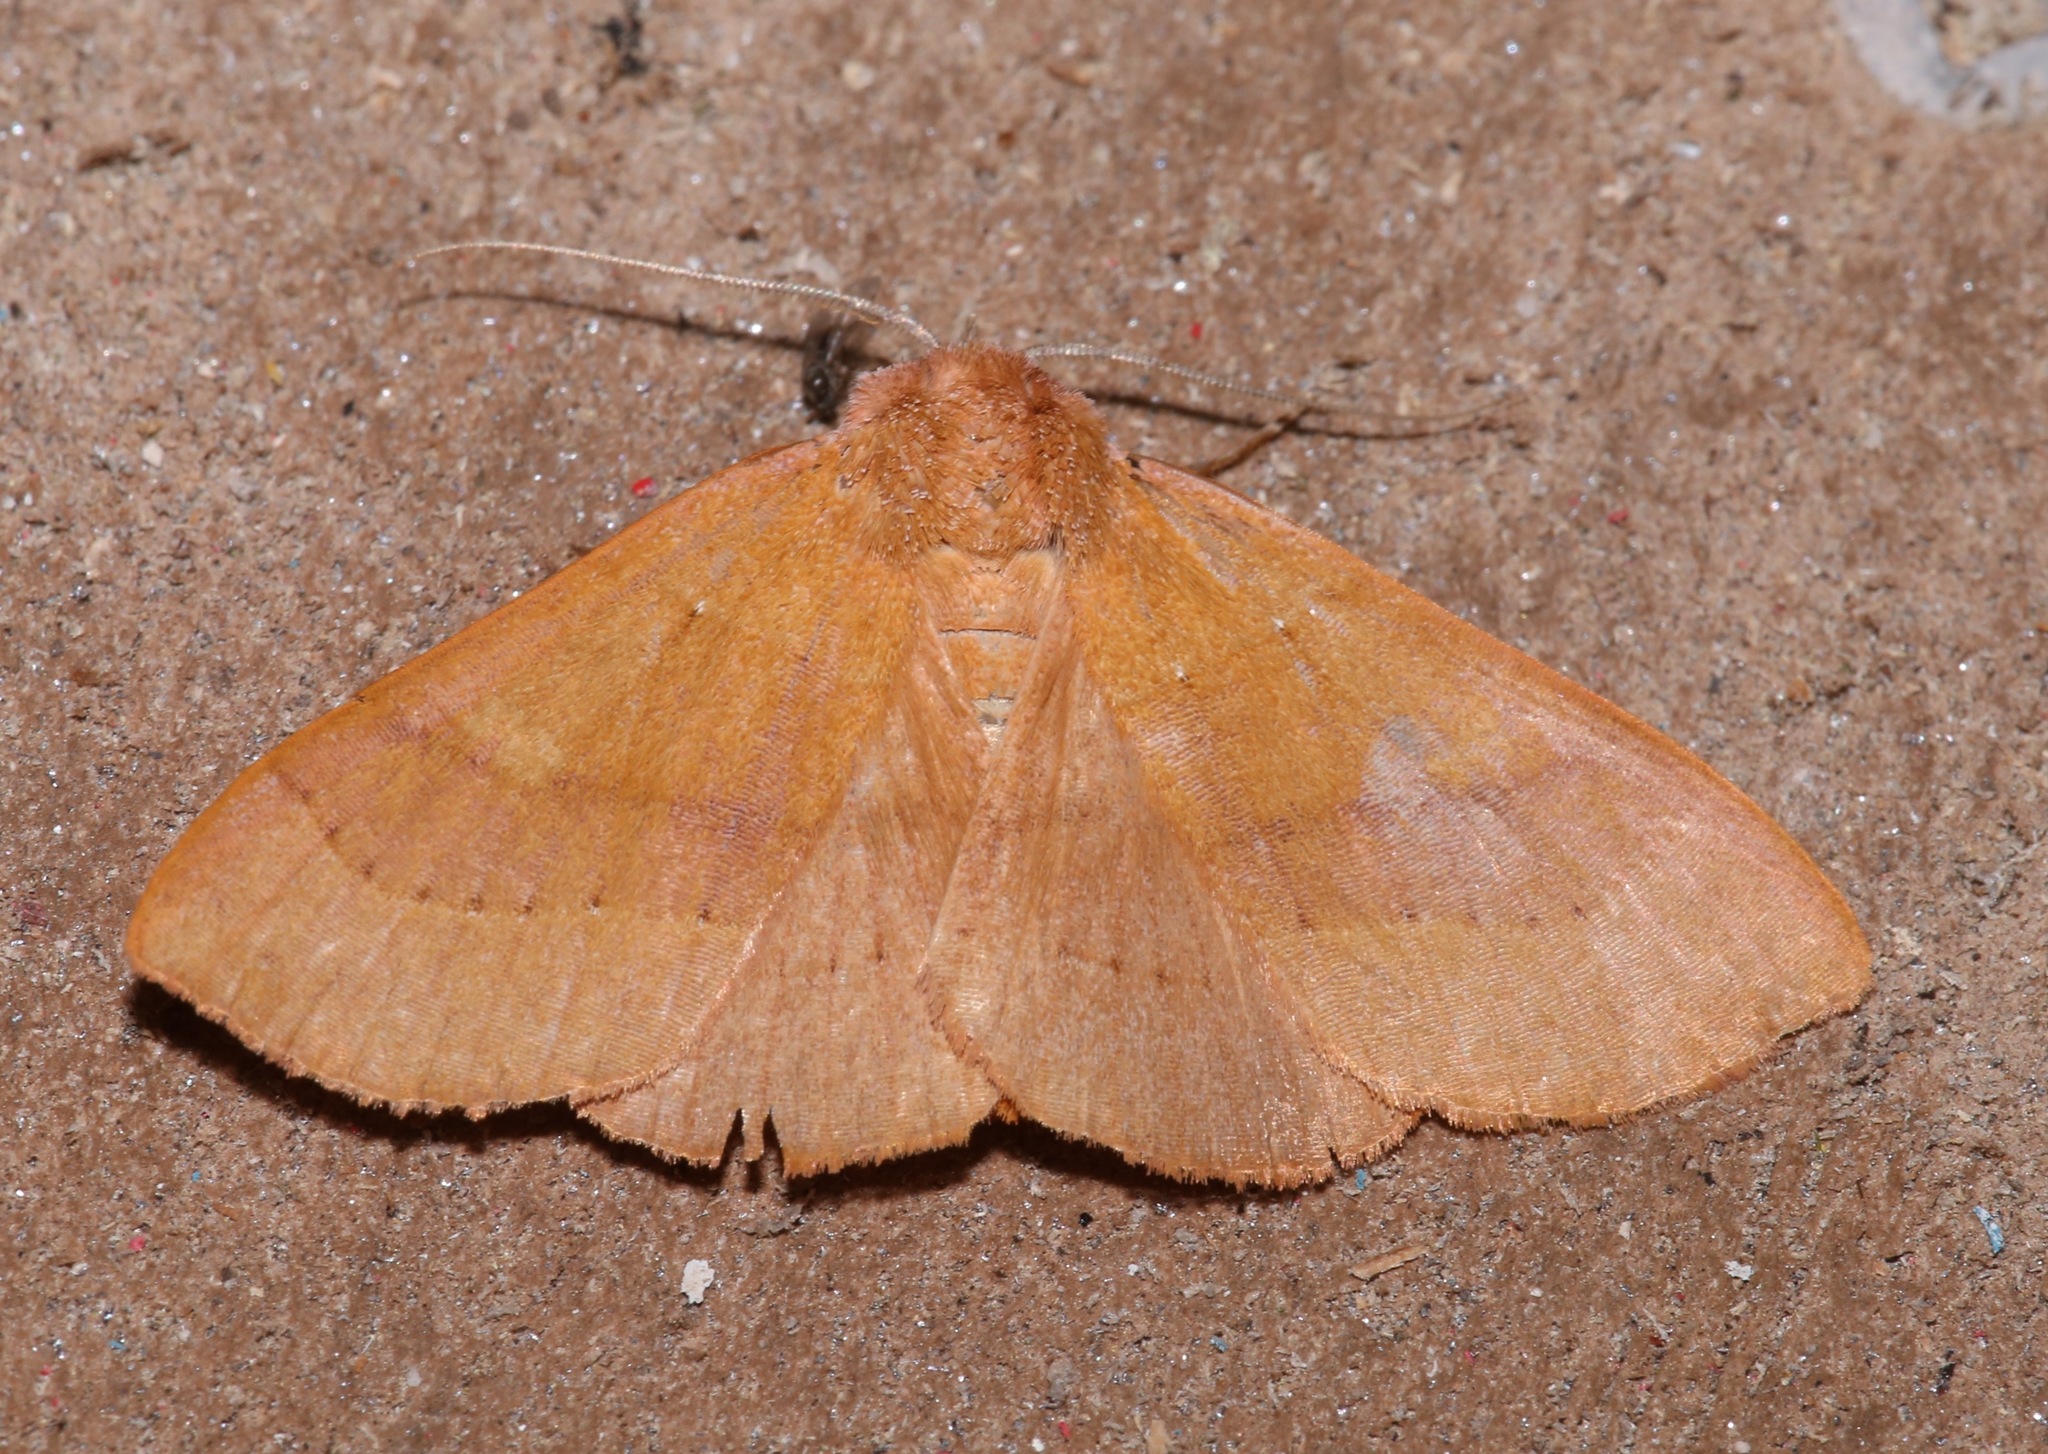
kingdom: Animalia
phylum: Arthropoda
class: Insecta
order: Lepidoptera
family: Erebidae
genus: Panopoda
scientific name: Panopoda repanda
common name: Orange panopoda
